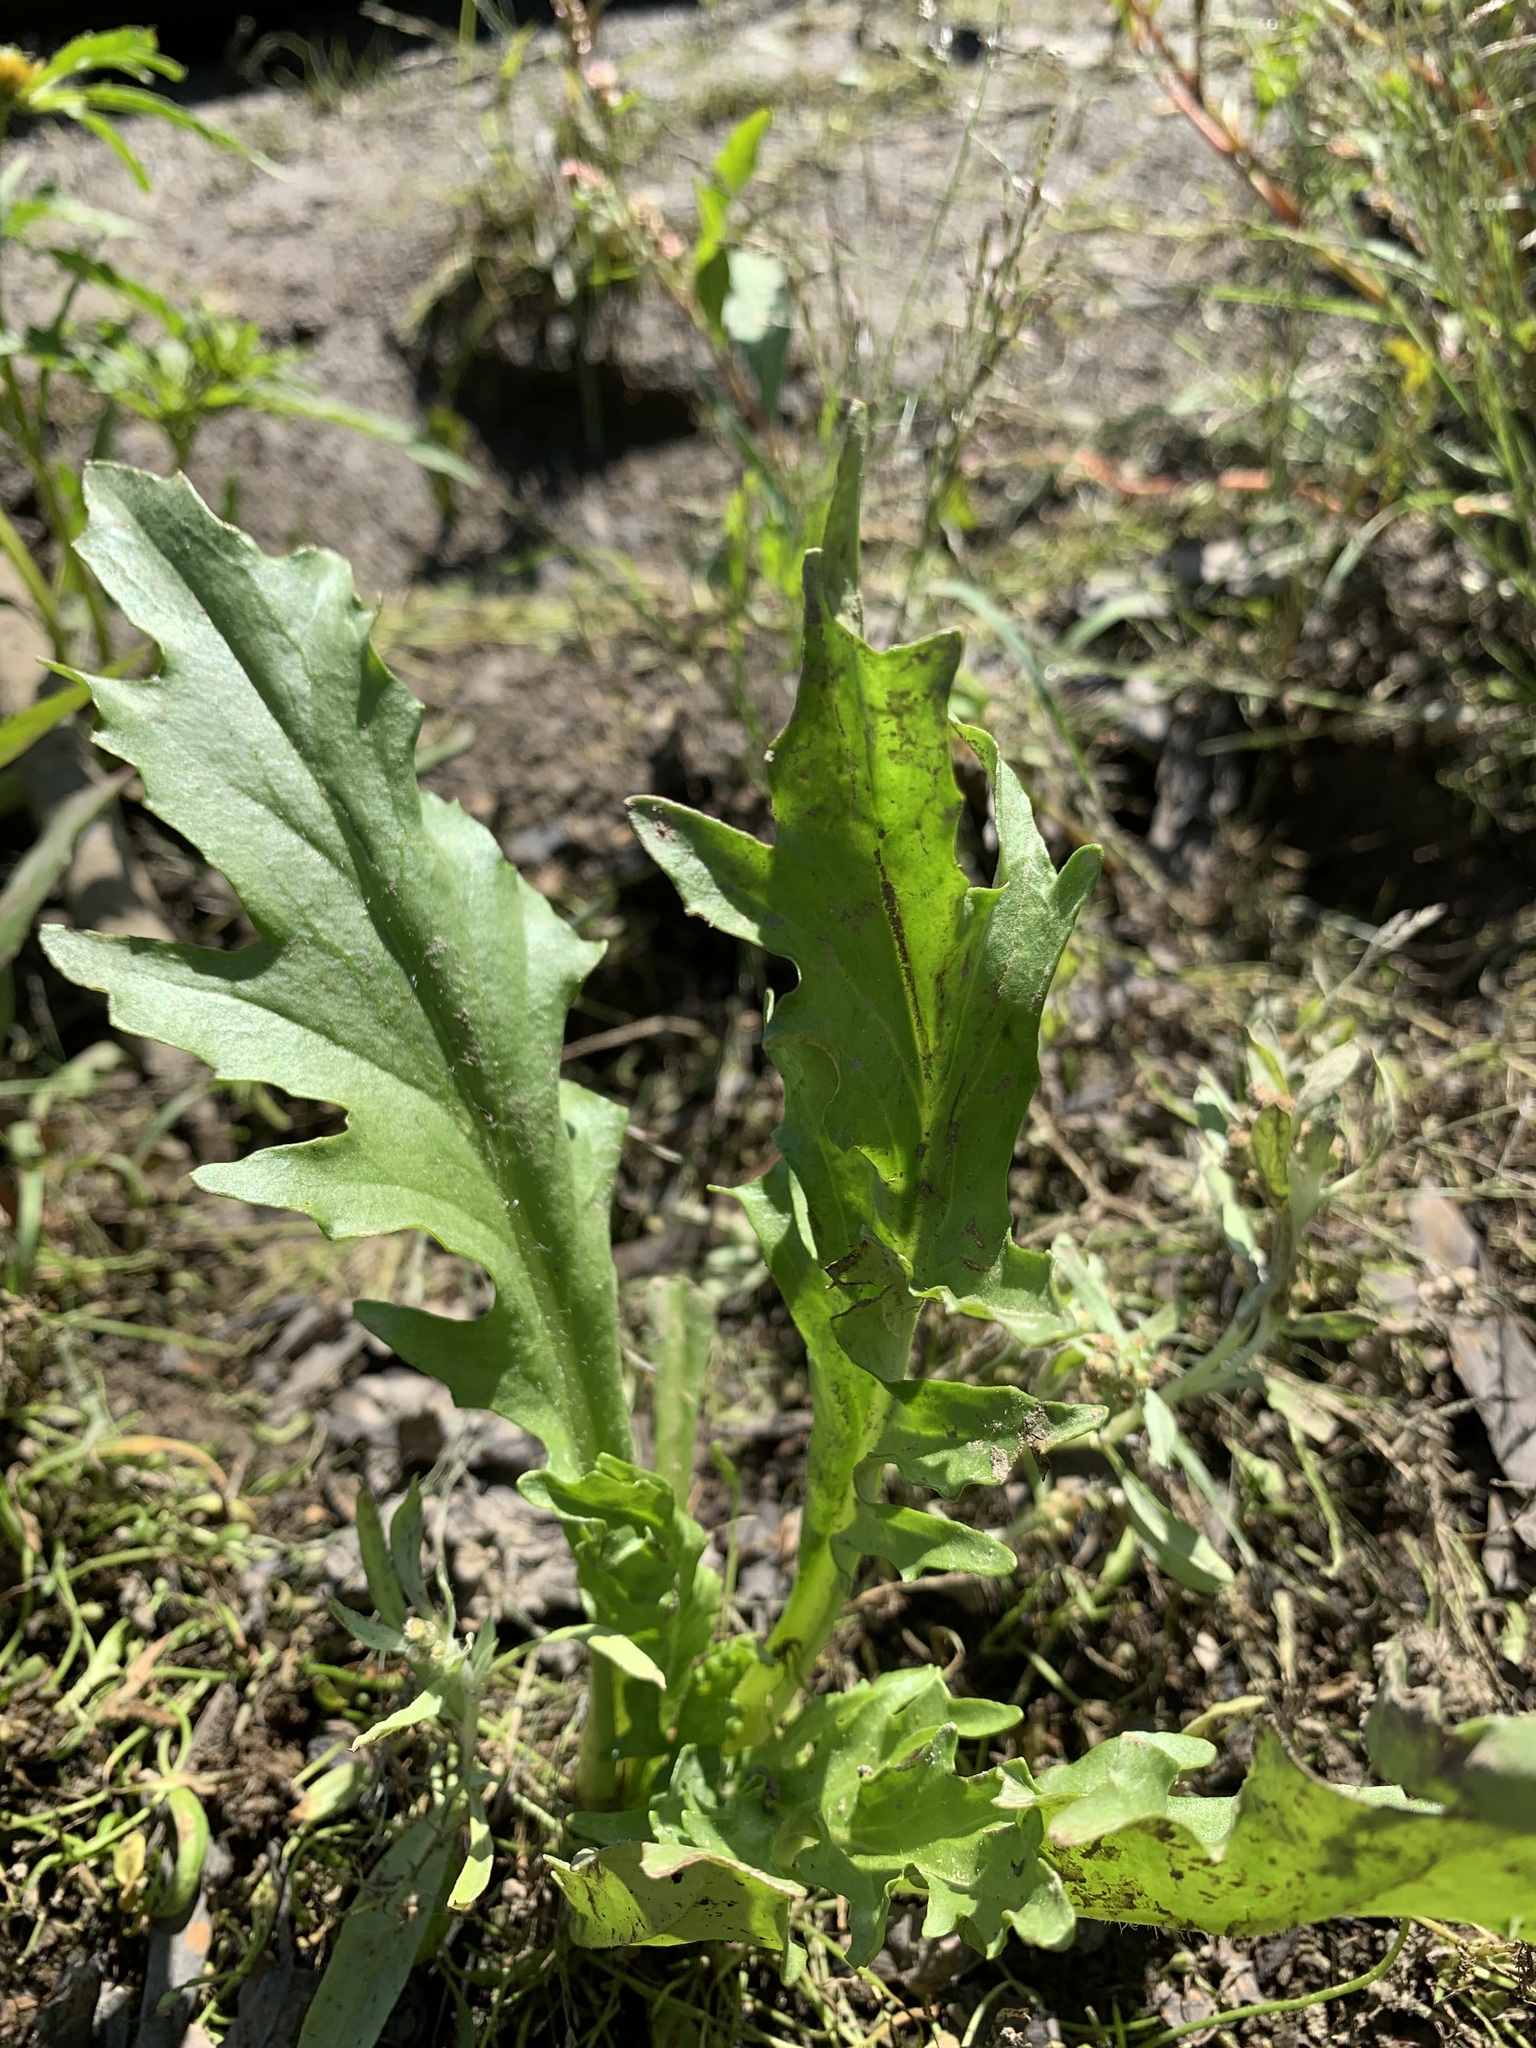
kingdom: Plantae
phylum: Tracheophyta
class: Magnoliopsida
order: Asterales
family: Asteraceae
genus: Tephroseris
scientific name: Tephroseris palustris
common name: Marsh fleawort
